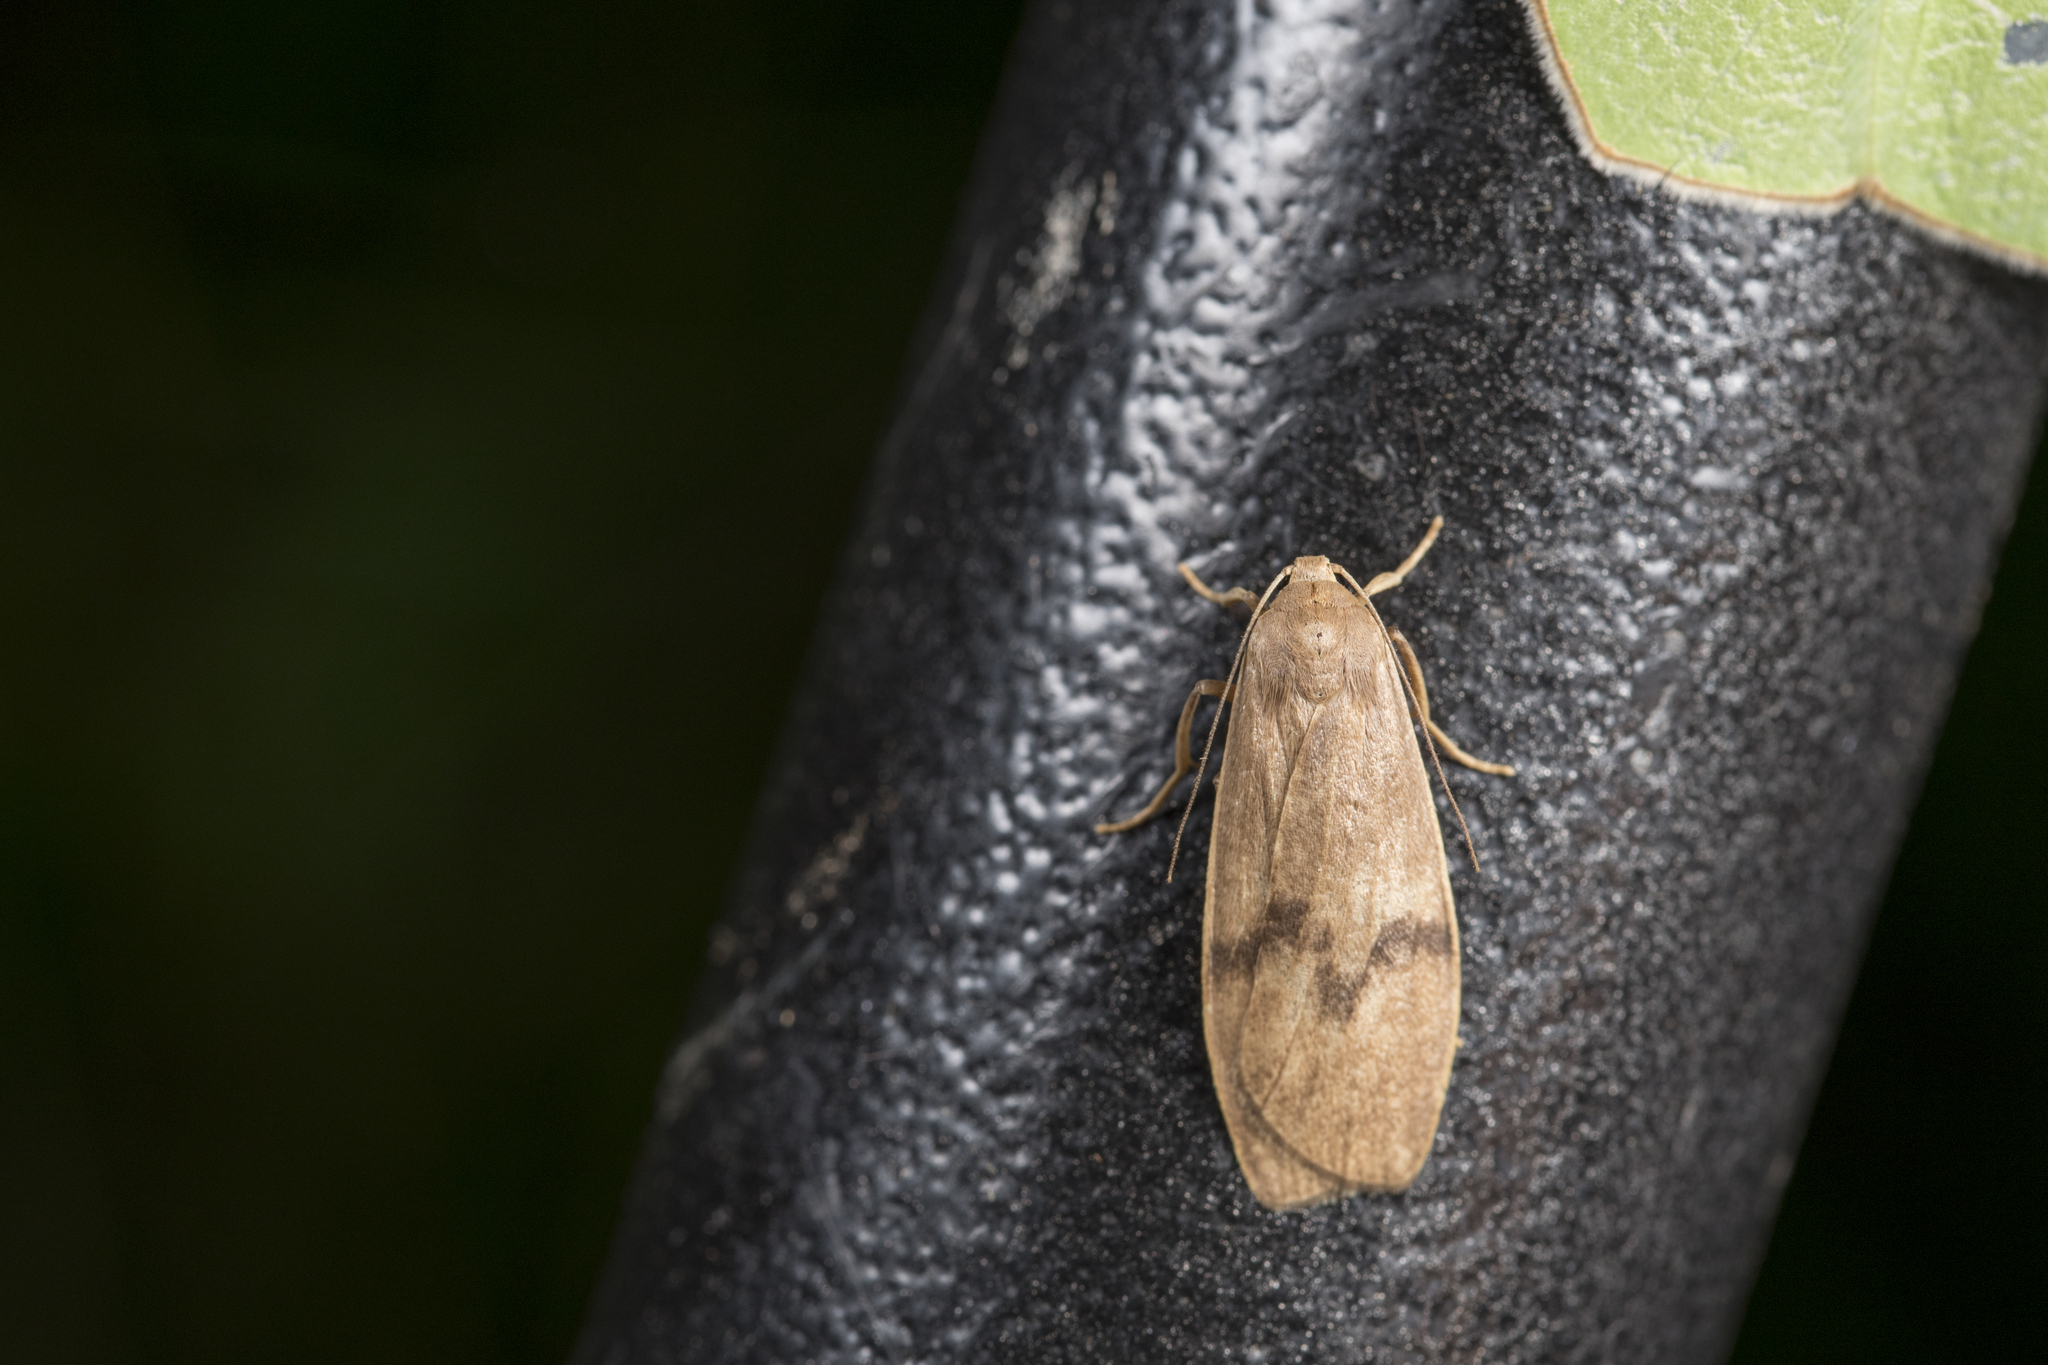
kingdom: Animalia
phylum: Arthropoda
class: Insecta
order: Lepidoptera
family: Erebidae
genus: Teuloma
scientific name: Teuloma tainebula
